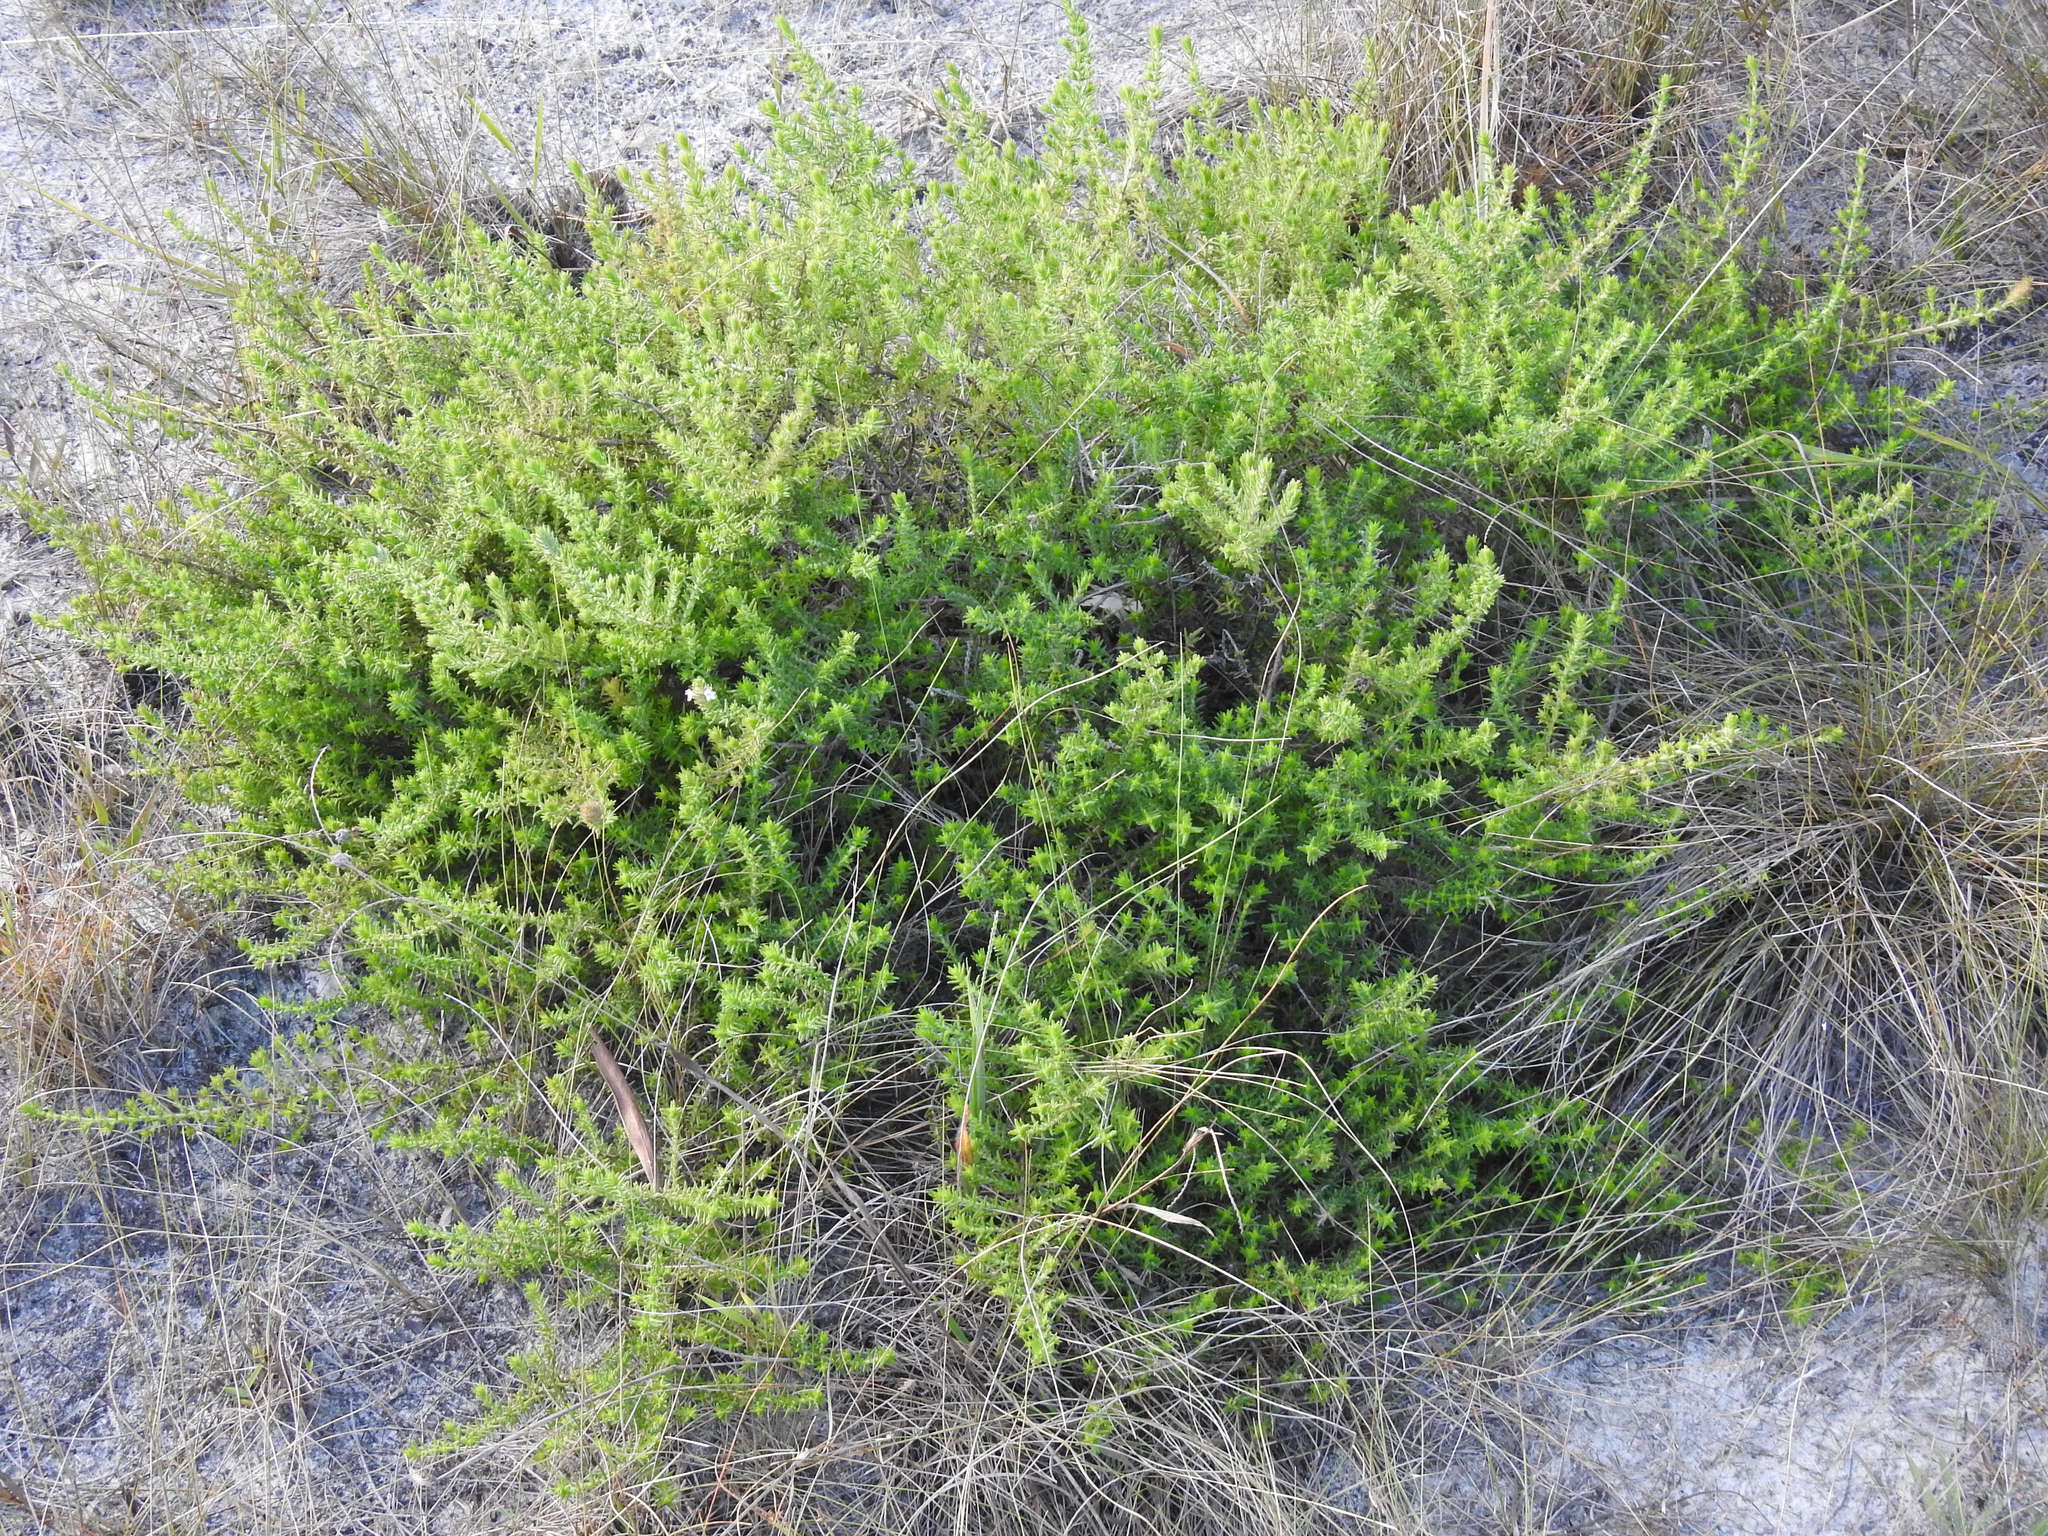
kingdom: Plantae
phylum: Tracheophyta
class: Magnoliopsida
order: Lamiales
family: Lamiaceae
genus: Piloblephis
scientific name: Piloblephis rigida
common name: Wild pennyroyal
